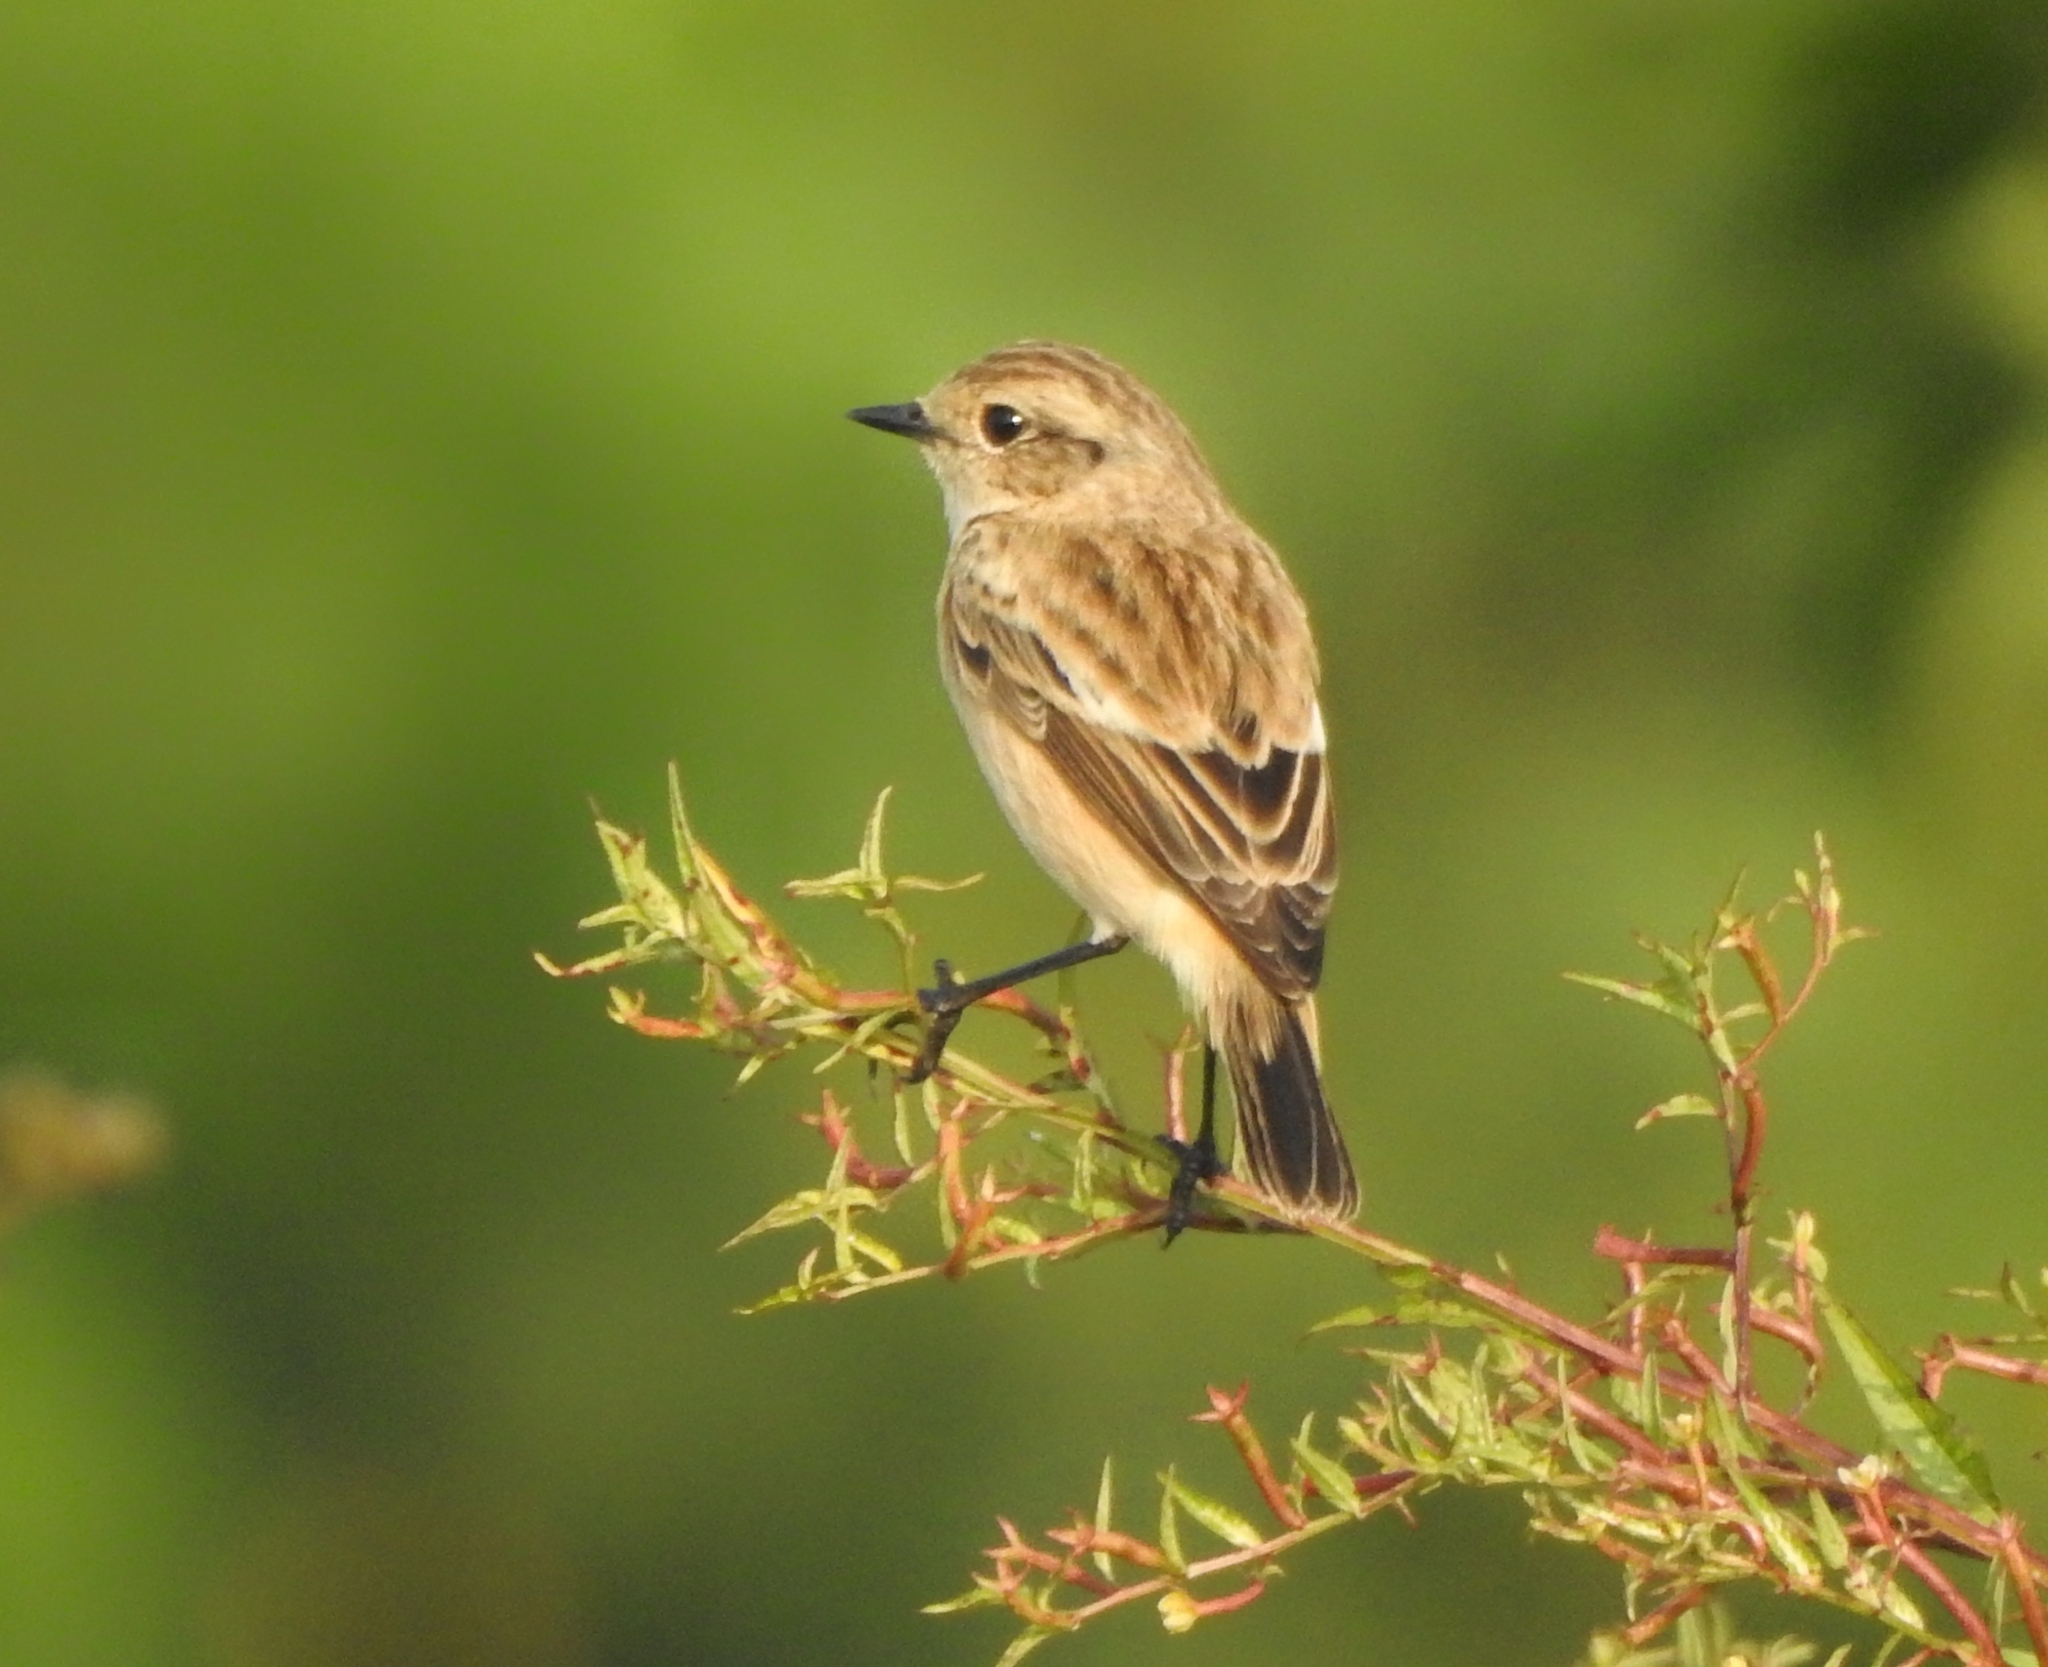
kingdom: Animalia
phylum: Chordata
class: Aves
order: Passeriformes
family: Muscicapidae
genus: Saxicola
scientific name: Saxicola maurus
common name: Siberian stonechat
